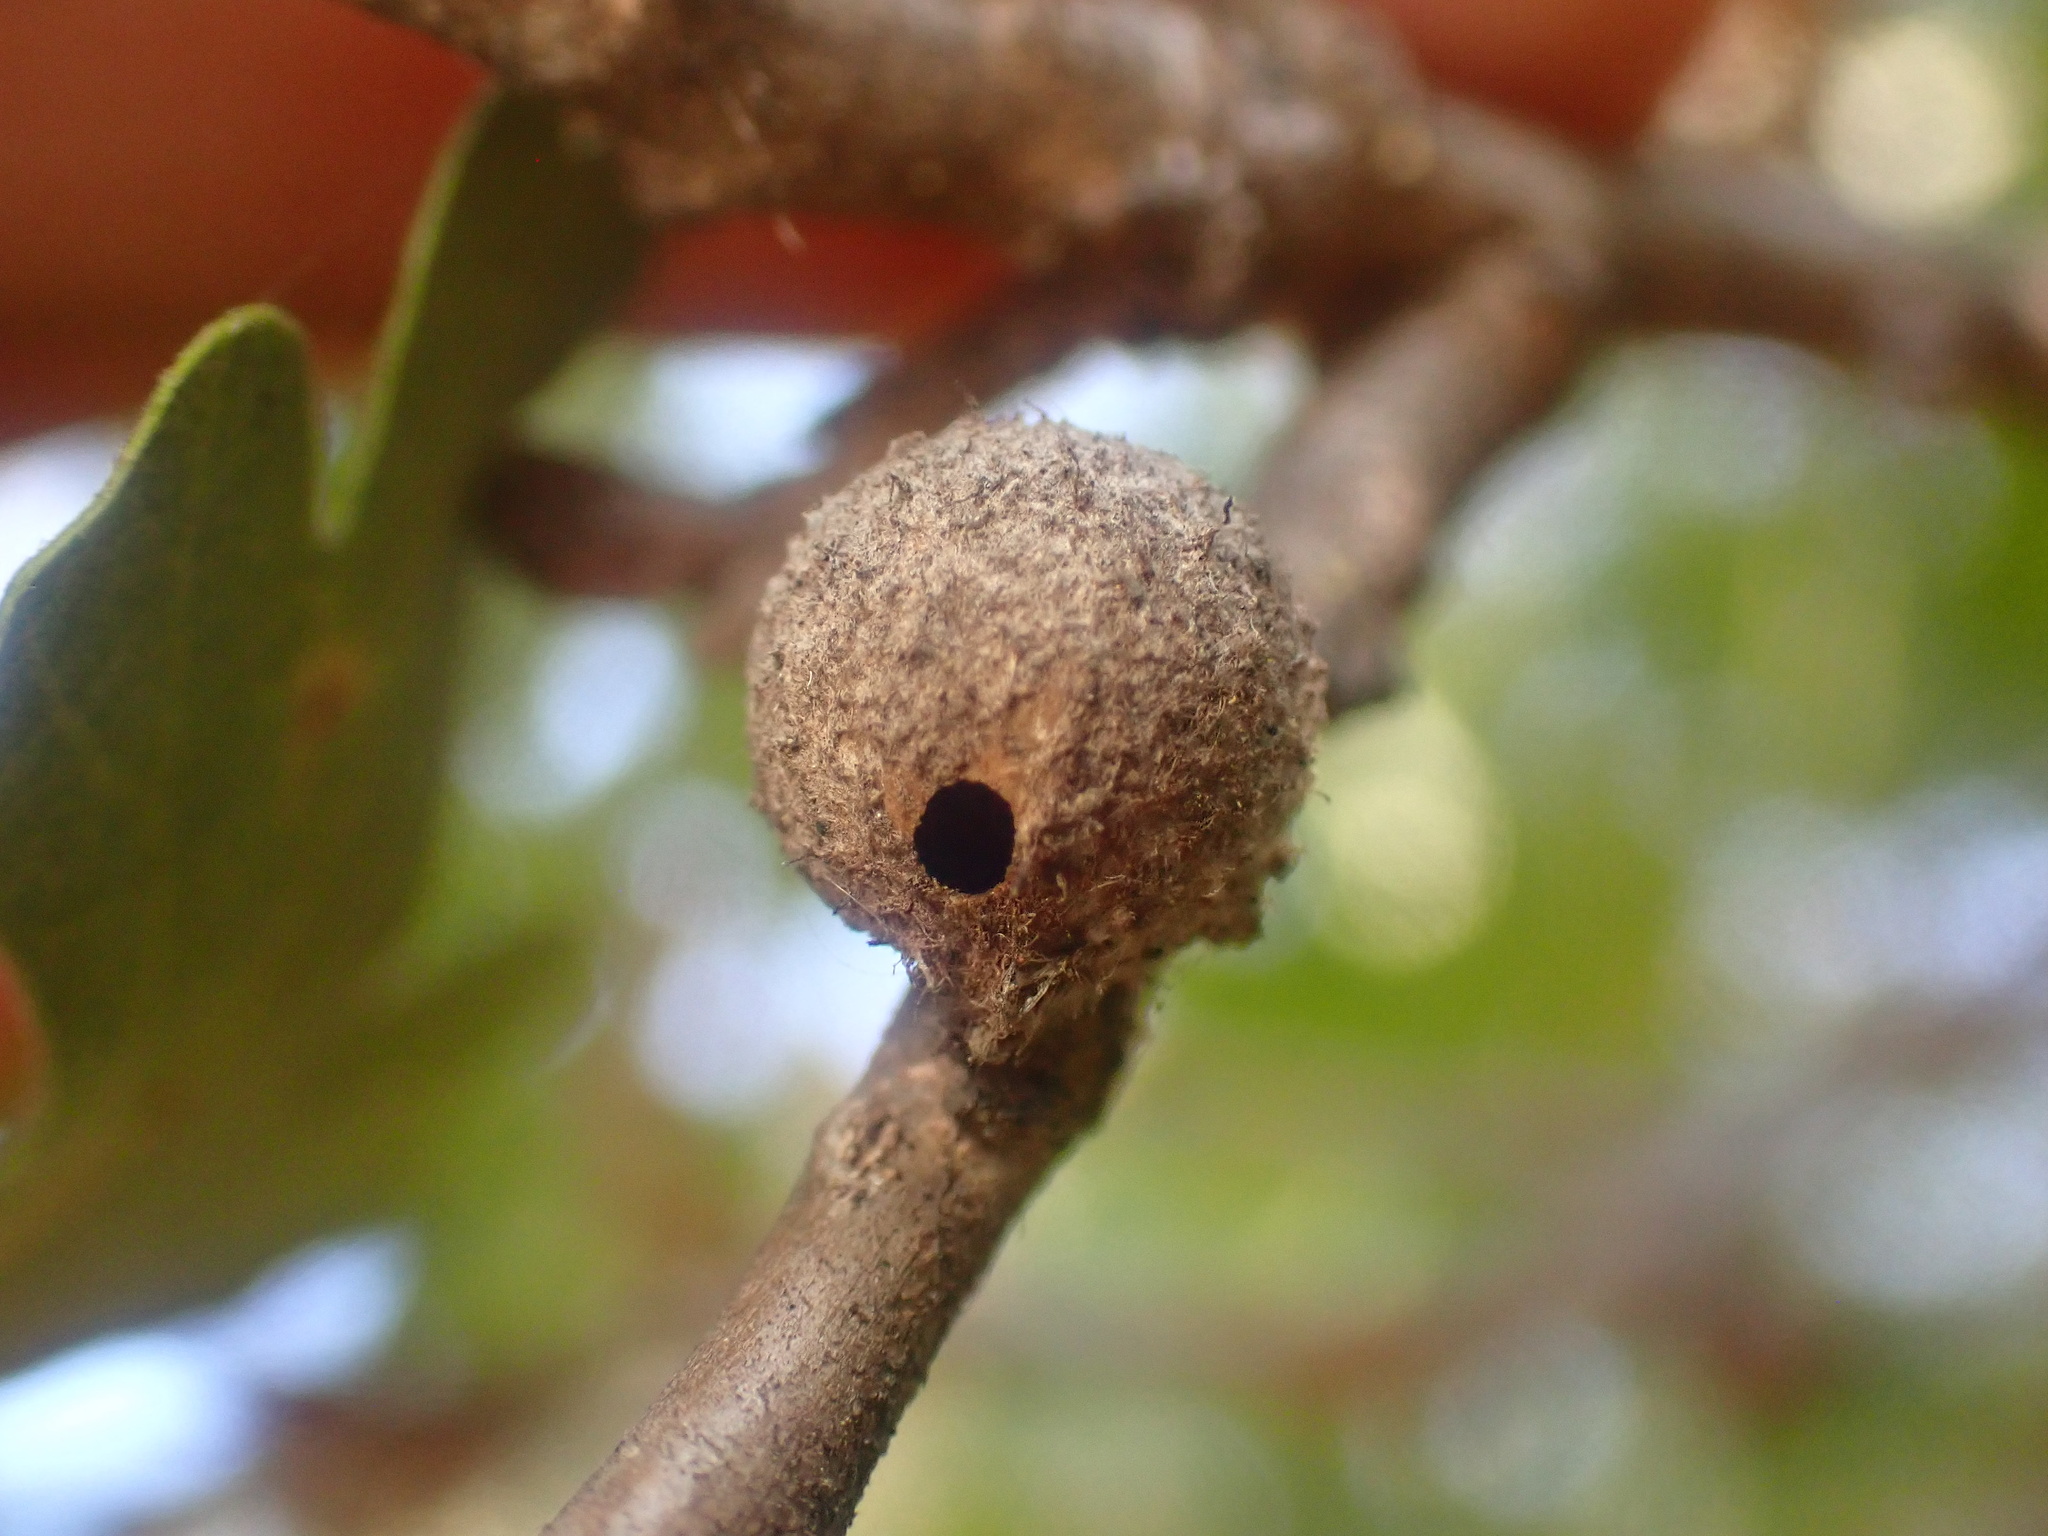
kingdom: Animalia
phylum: Arthropoda
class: Insecta
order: Hymenoptera
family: Cynipidae
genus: Burnettweldia
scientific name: Burnettweldia
